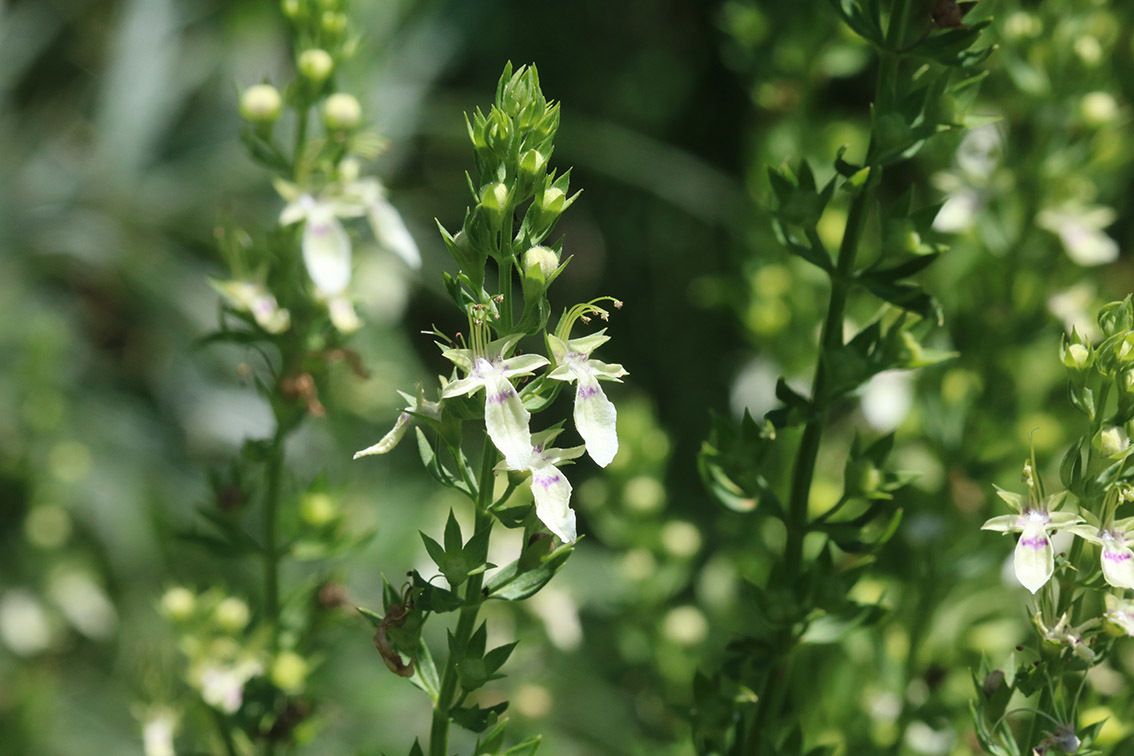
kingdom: Plantae
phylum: Tracheophyta
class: Magnoliopsida
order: Lamiales
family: Lamiaceae
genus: Teucrium
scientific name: Teucrium cubense
